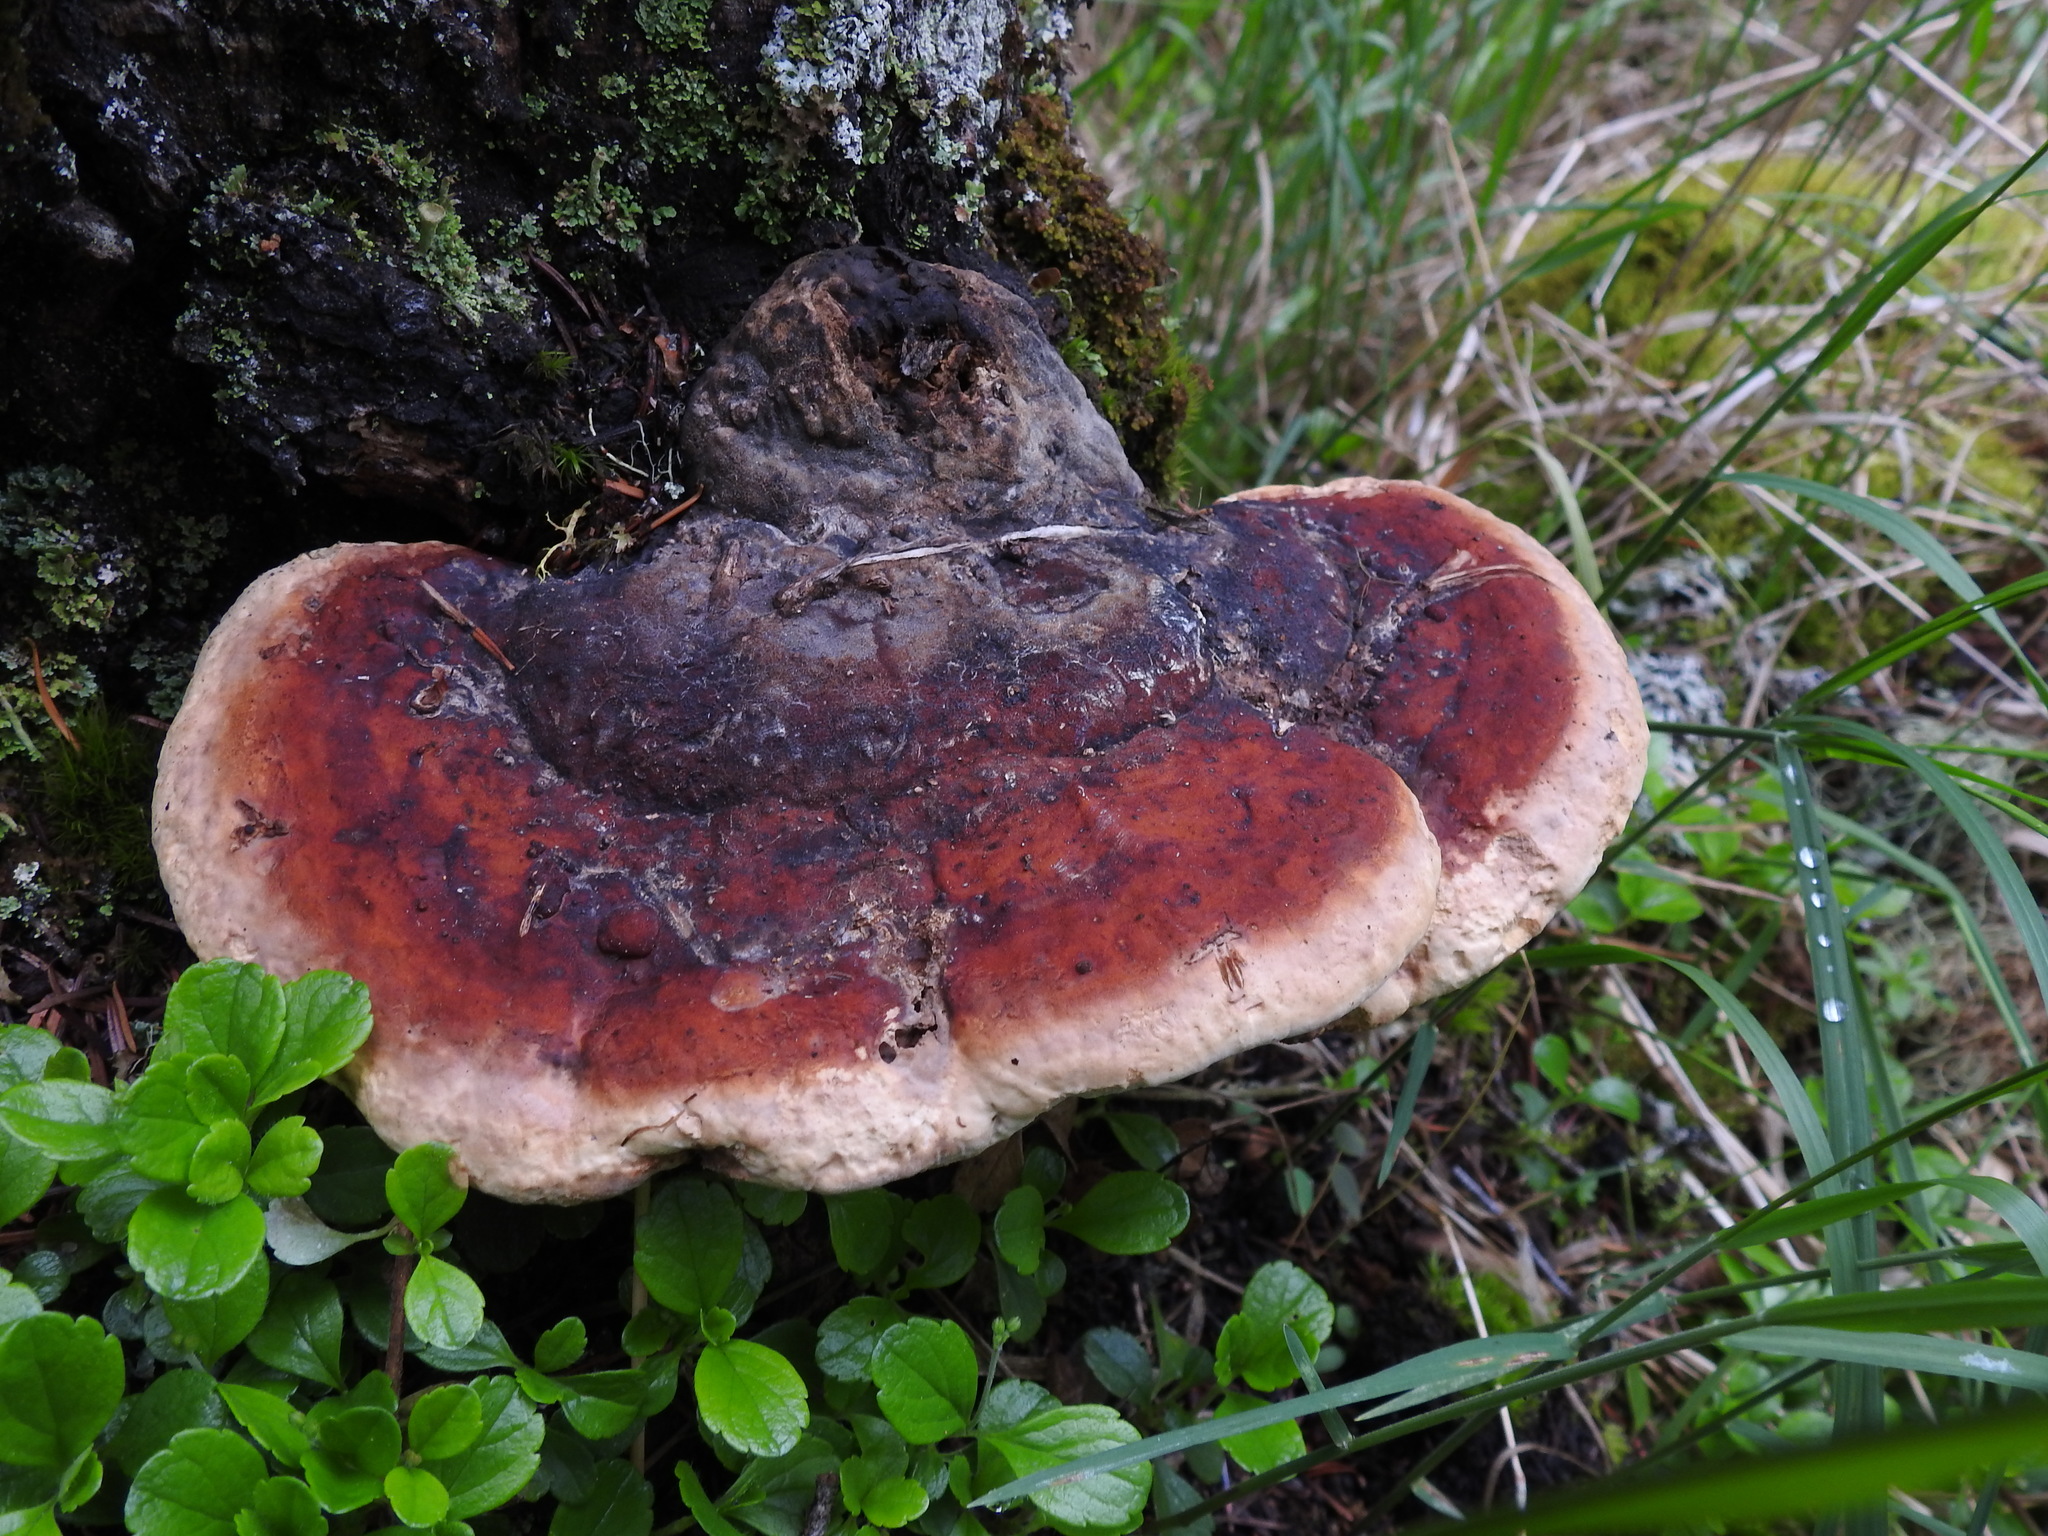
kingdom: Fungi
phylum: Basidiomycota
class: Agaricomycetes
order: Polyporales
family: Fomitopsidaceae
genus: Fomitopsis
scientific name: Fomitopsis mounceae
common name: Northern red belt
